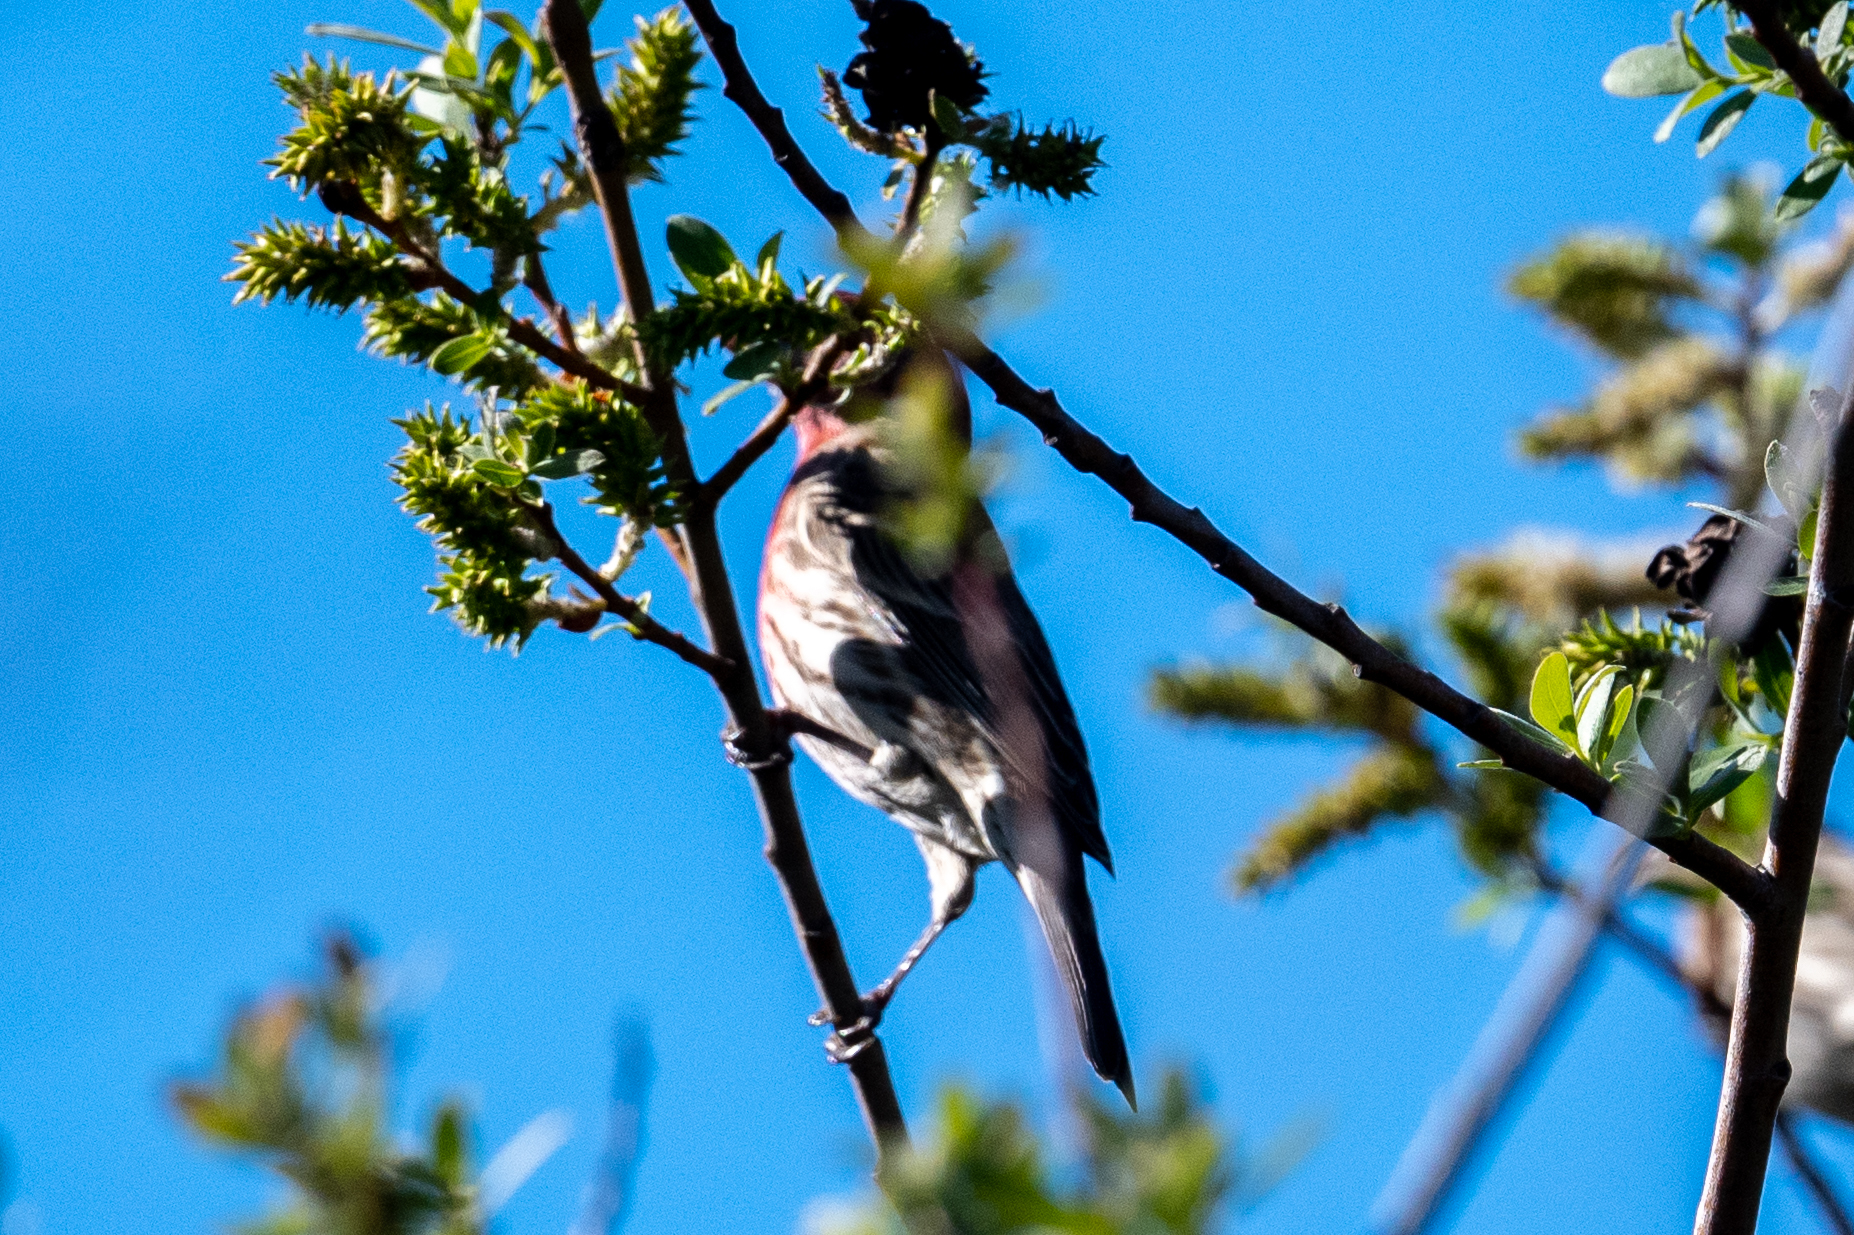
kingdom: Animalia
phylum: Chordata
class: Aves
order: Passeriformes
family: Fringillidae
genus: Haemorhous
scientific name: Haemorhous mexicanus
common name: House finch
